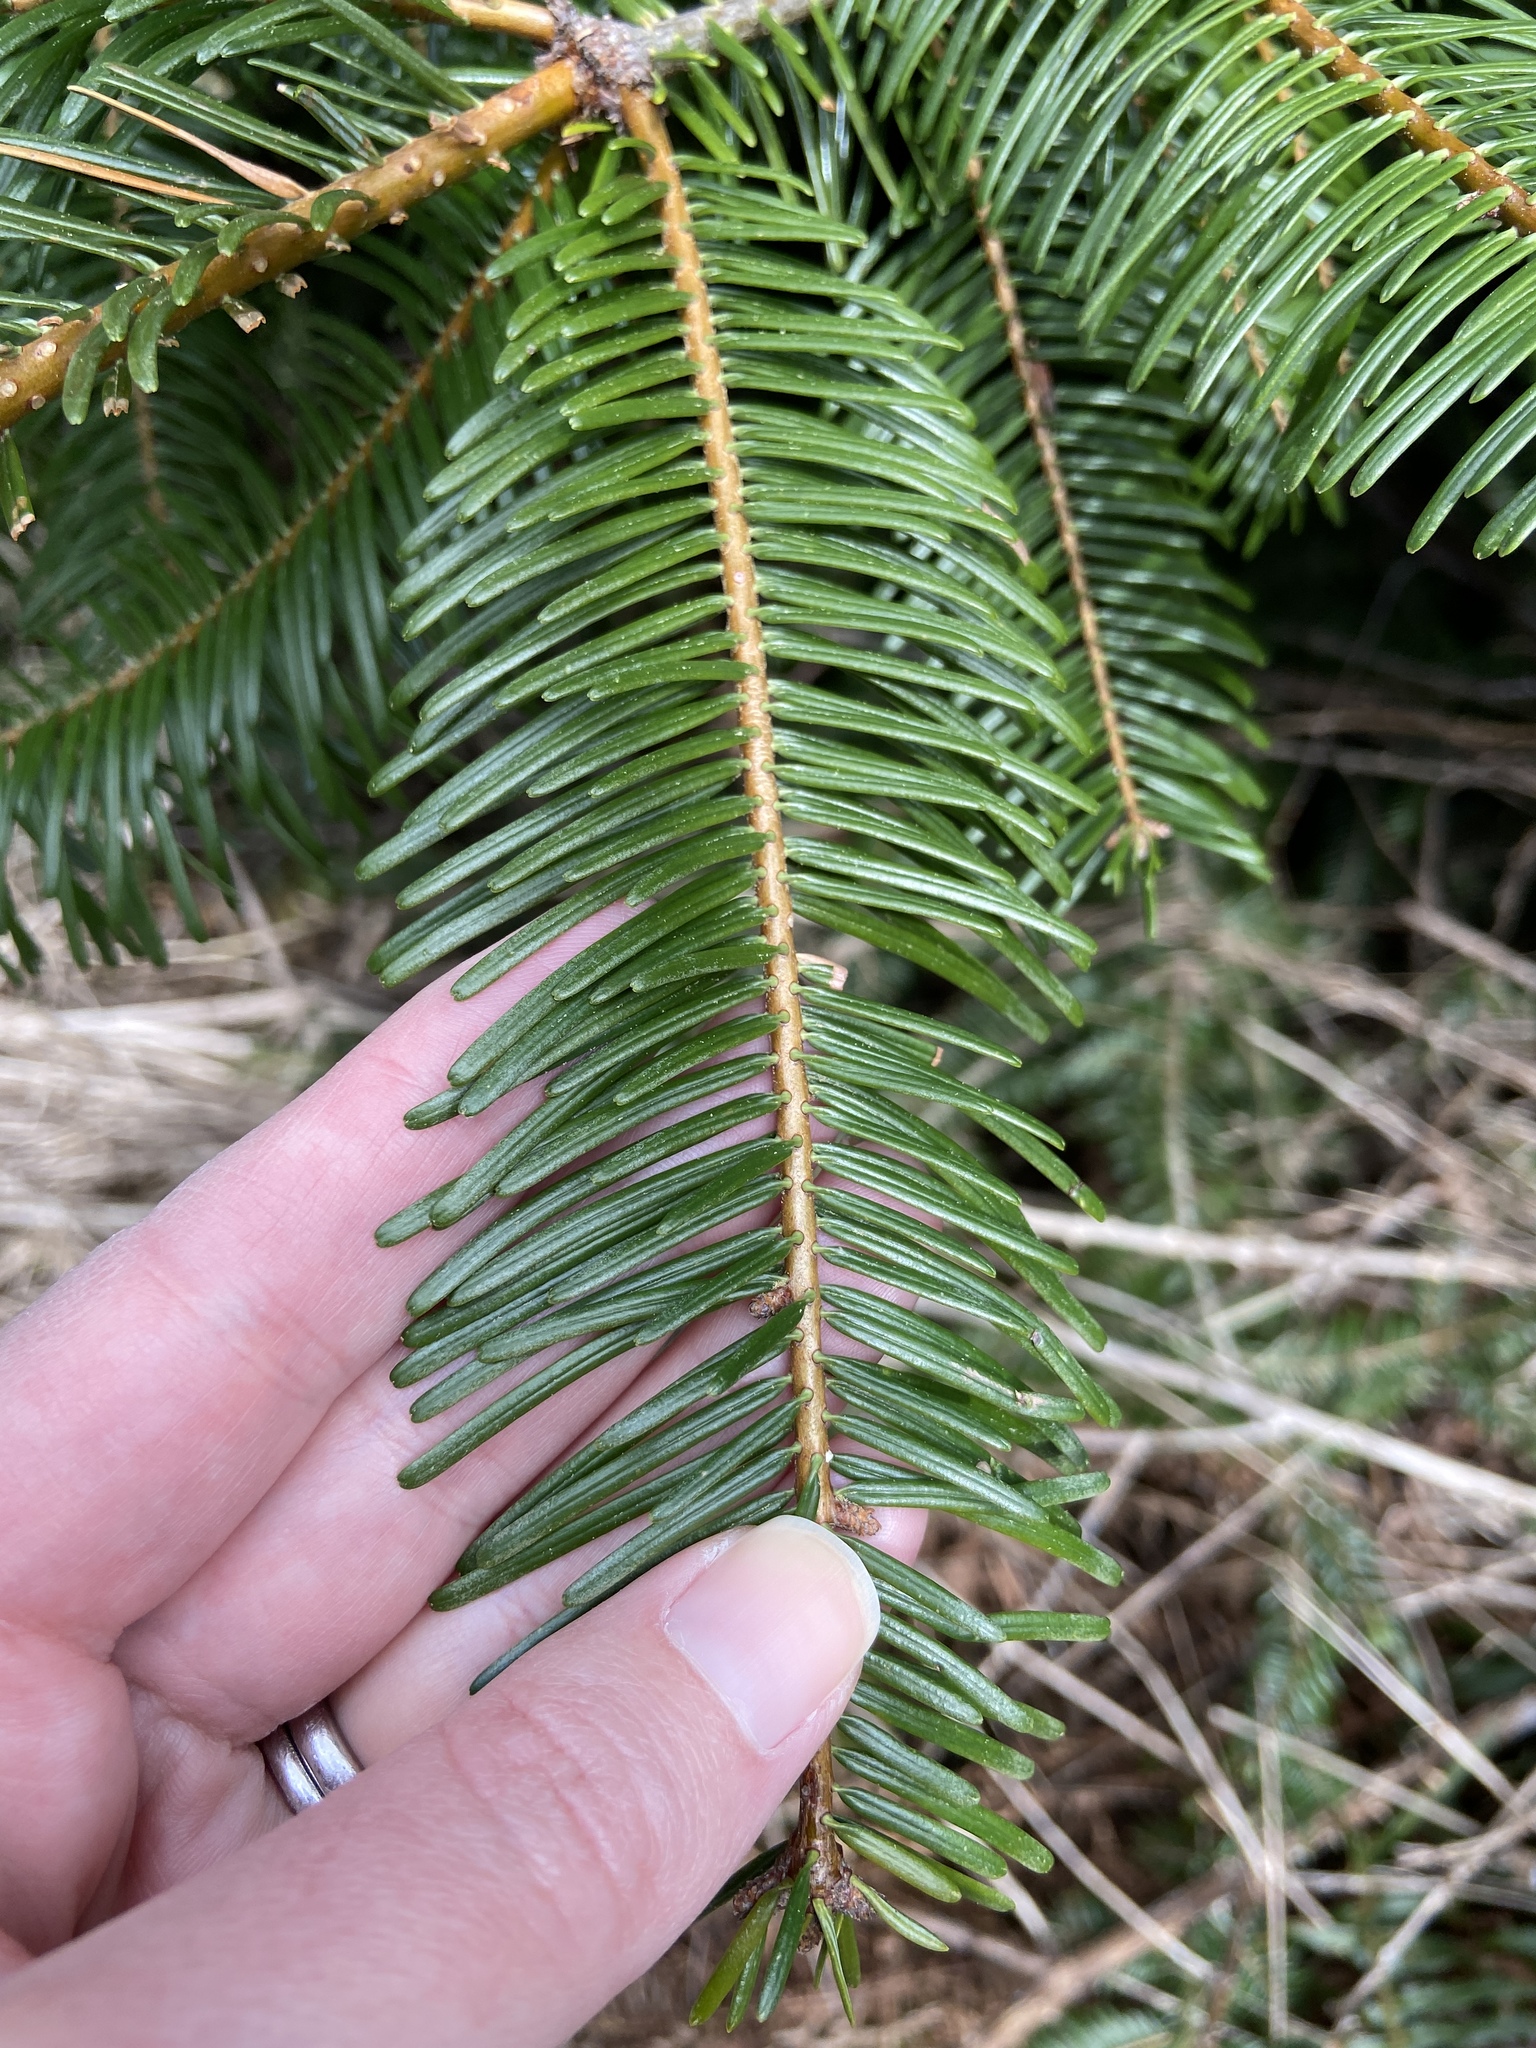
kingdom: Plantae
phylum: Tracheophyta
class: Pinopsida
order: Pinales
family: Pinaceae
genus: Abies
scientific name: Abies grandis
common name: Giant fir
